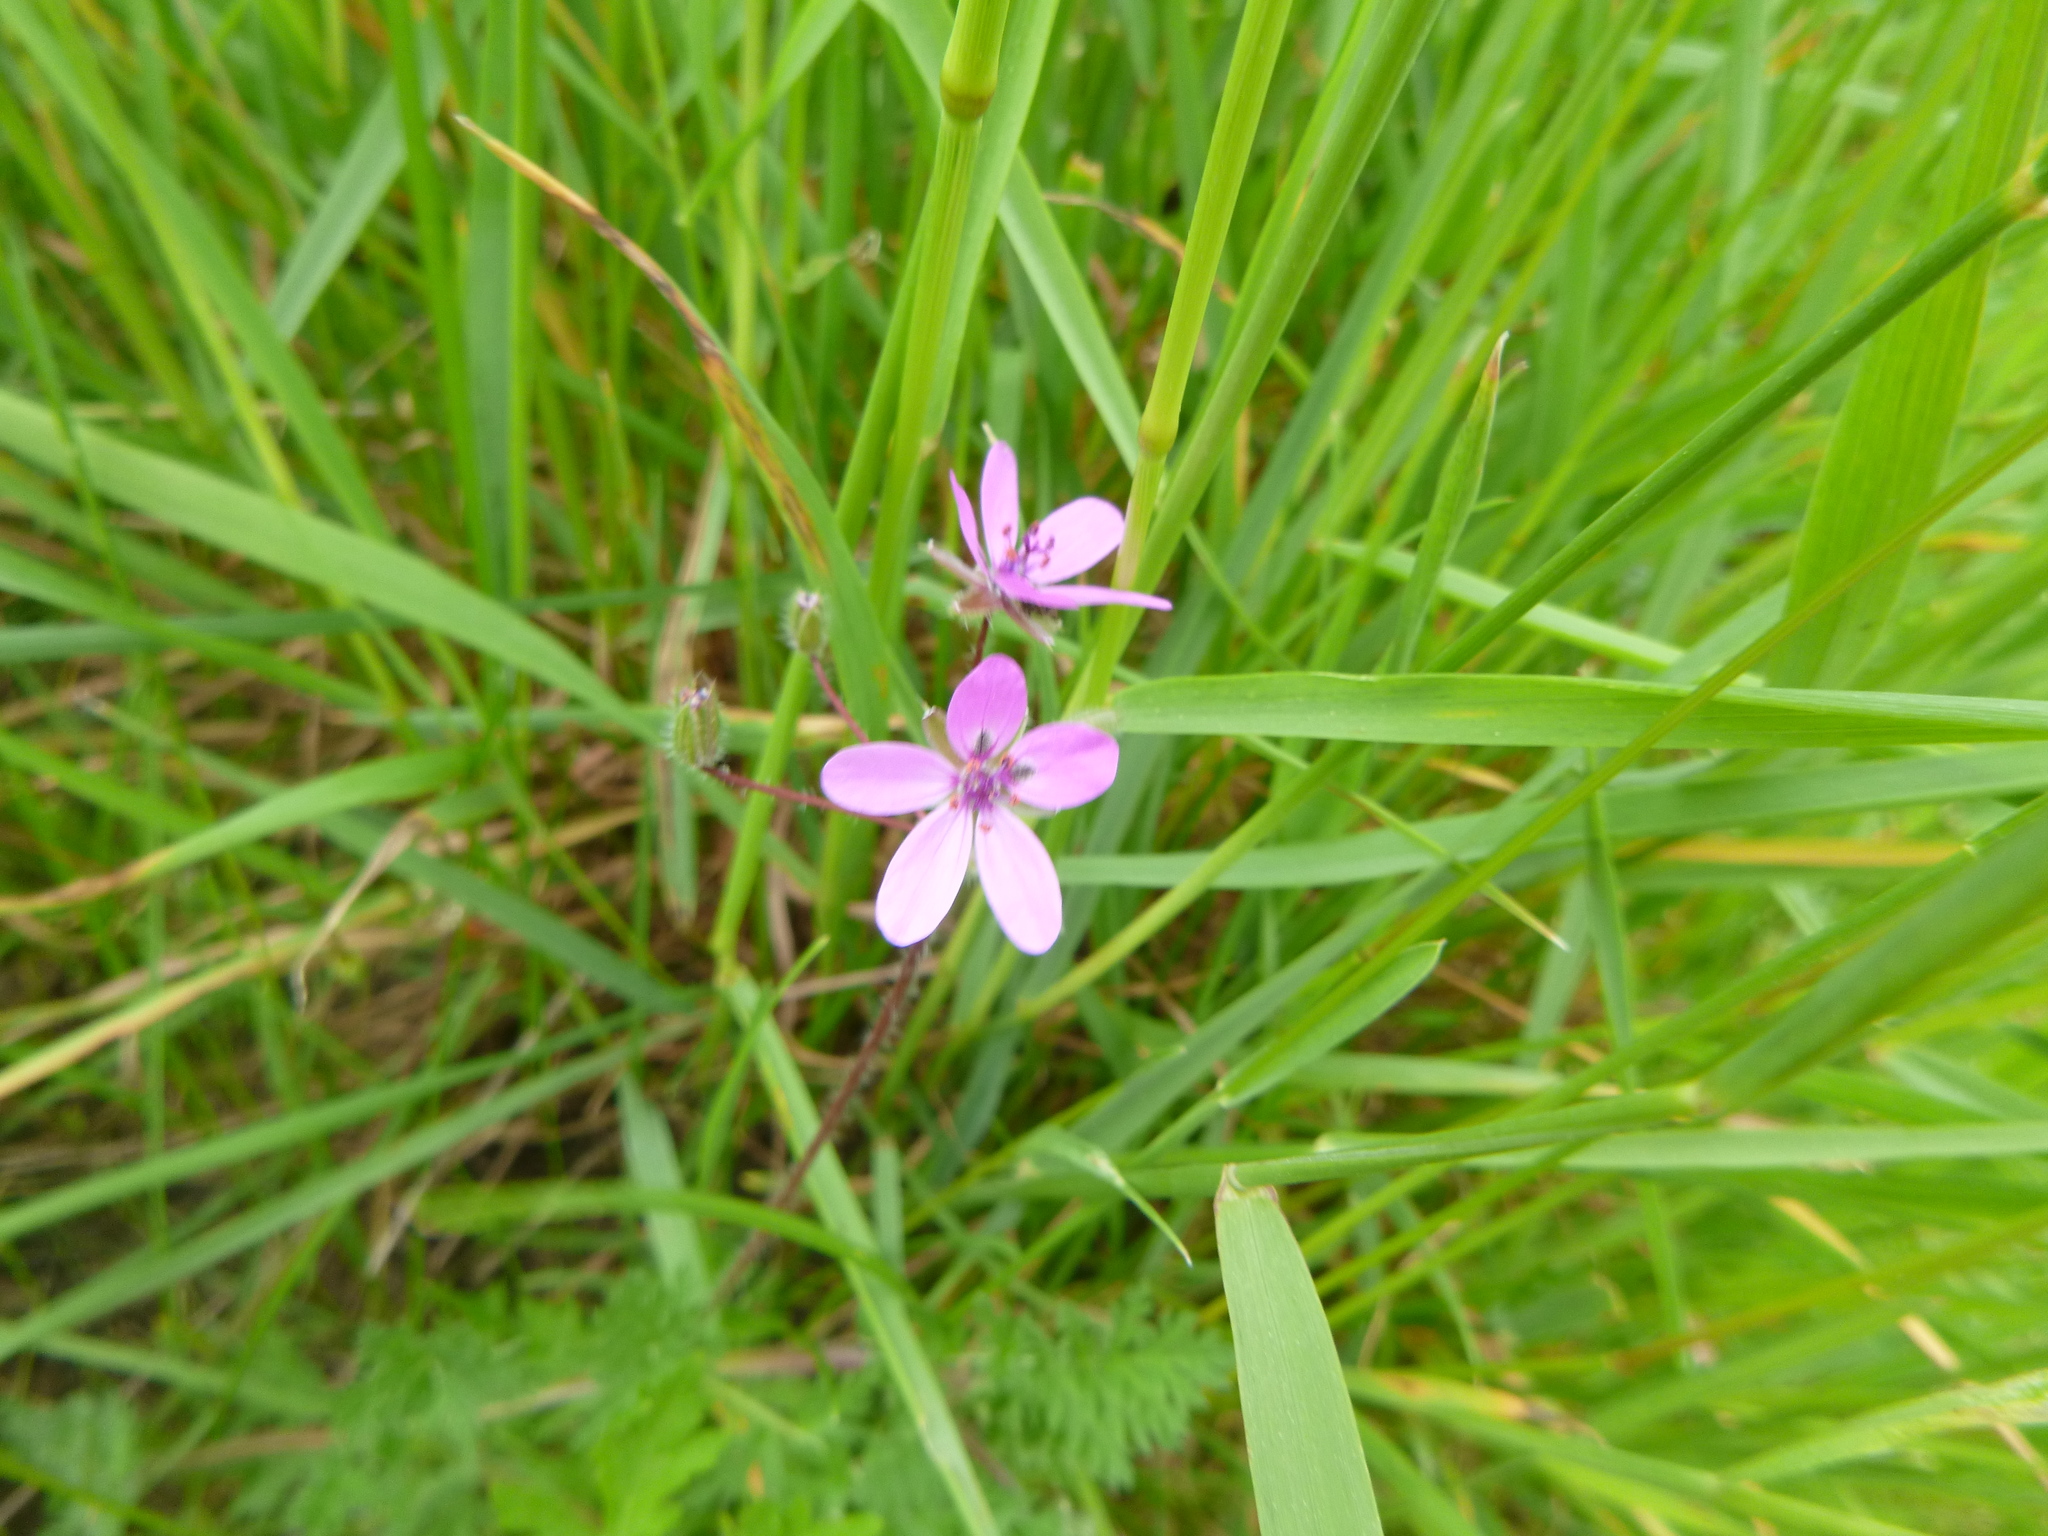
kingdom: Plantae
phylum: Tracheophyta
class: Magnoliopsida
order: Geraniales
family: Geraniaceae
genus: Erodium
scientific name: Erodium cicutarium
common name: Common stork's-bill
